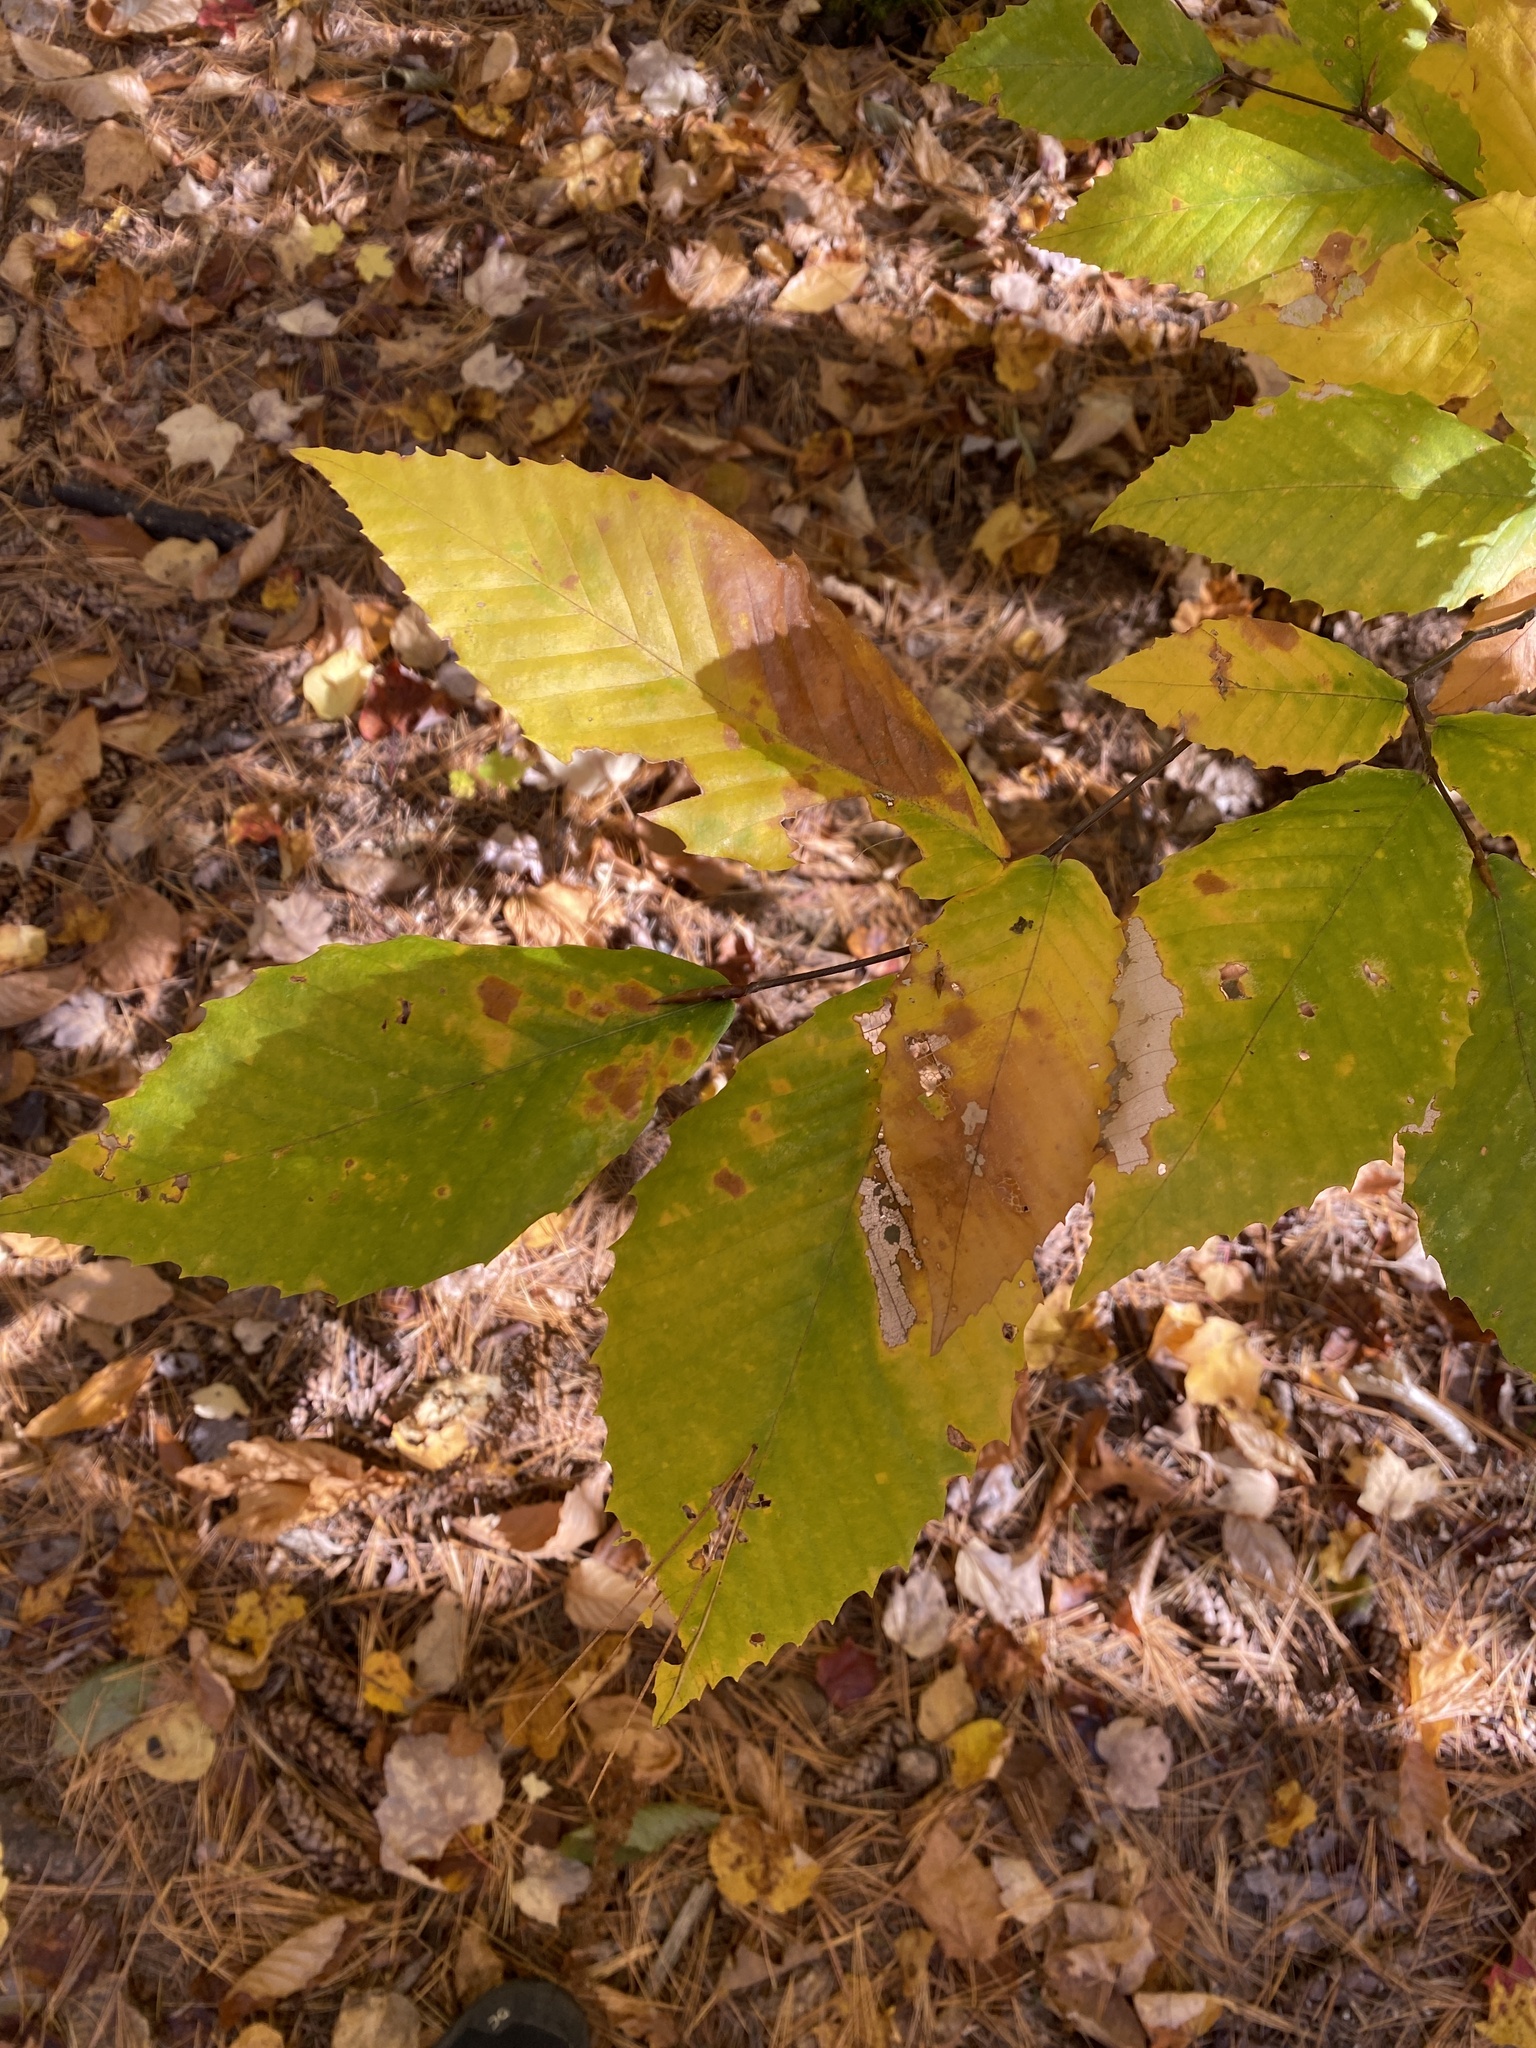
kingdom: Plantae
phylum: Tracheophyta
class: Magnoliopsida
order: Fagales
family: Fagaceae
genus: Fagus
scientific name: Fagus grandifolia
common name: American beech
